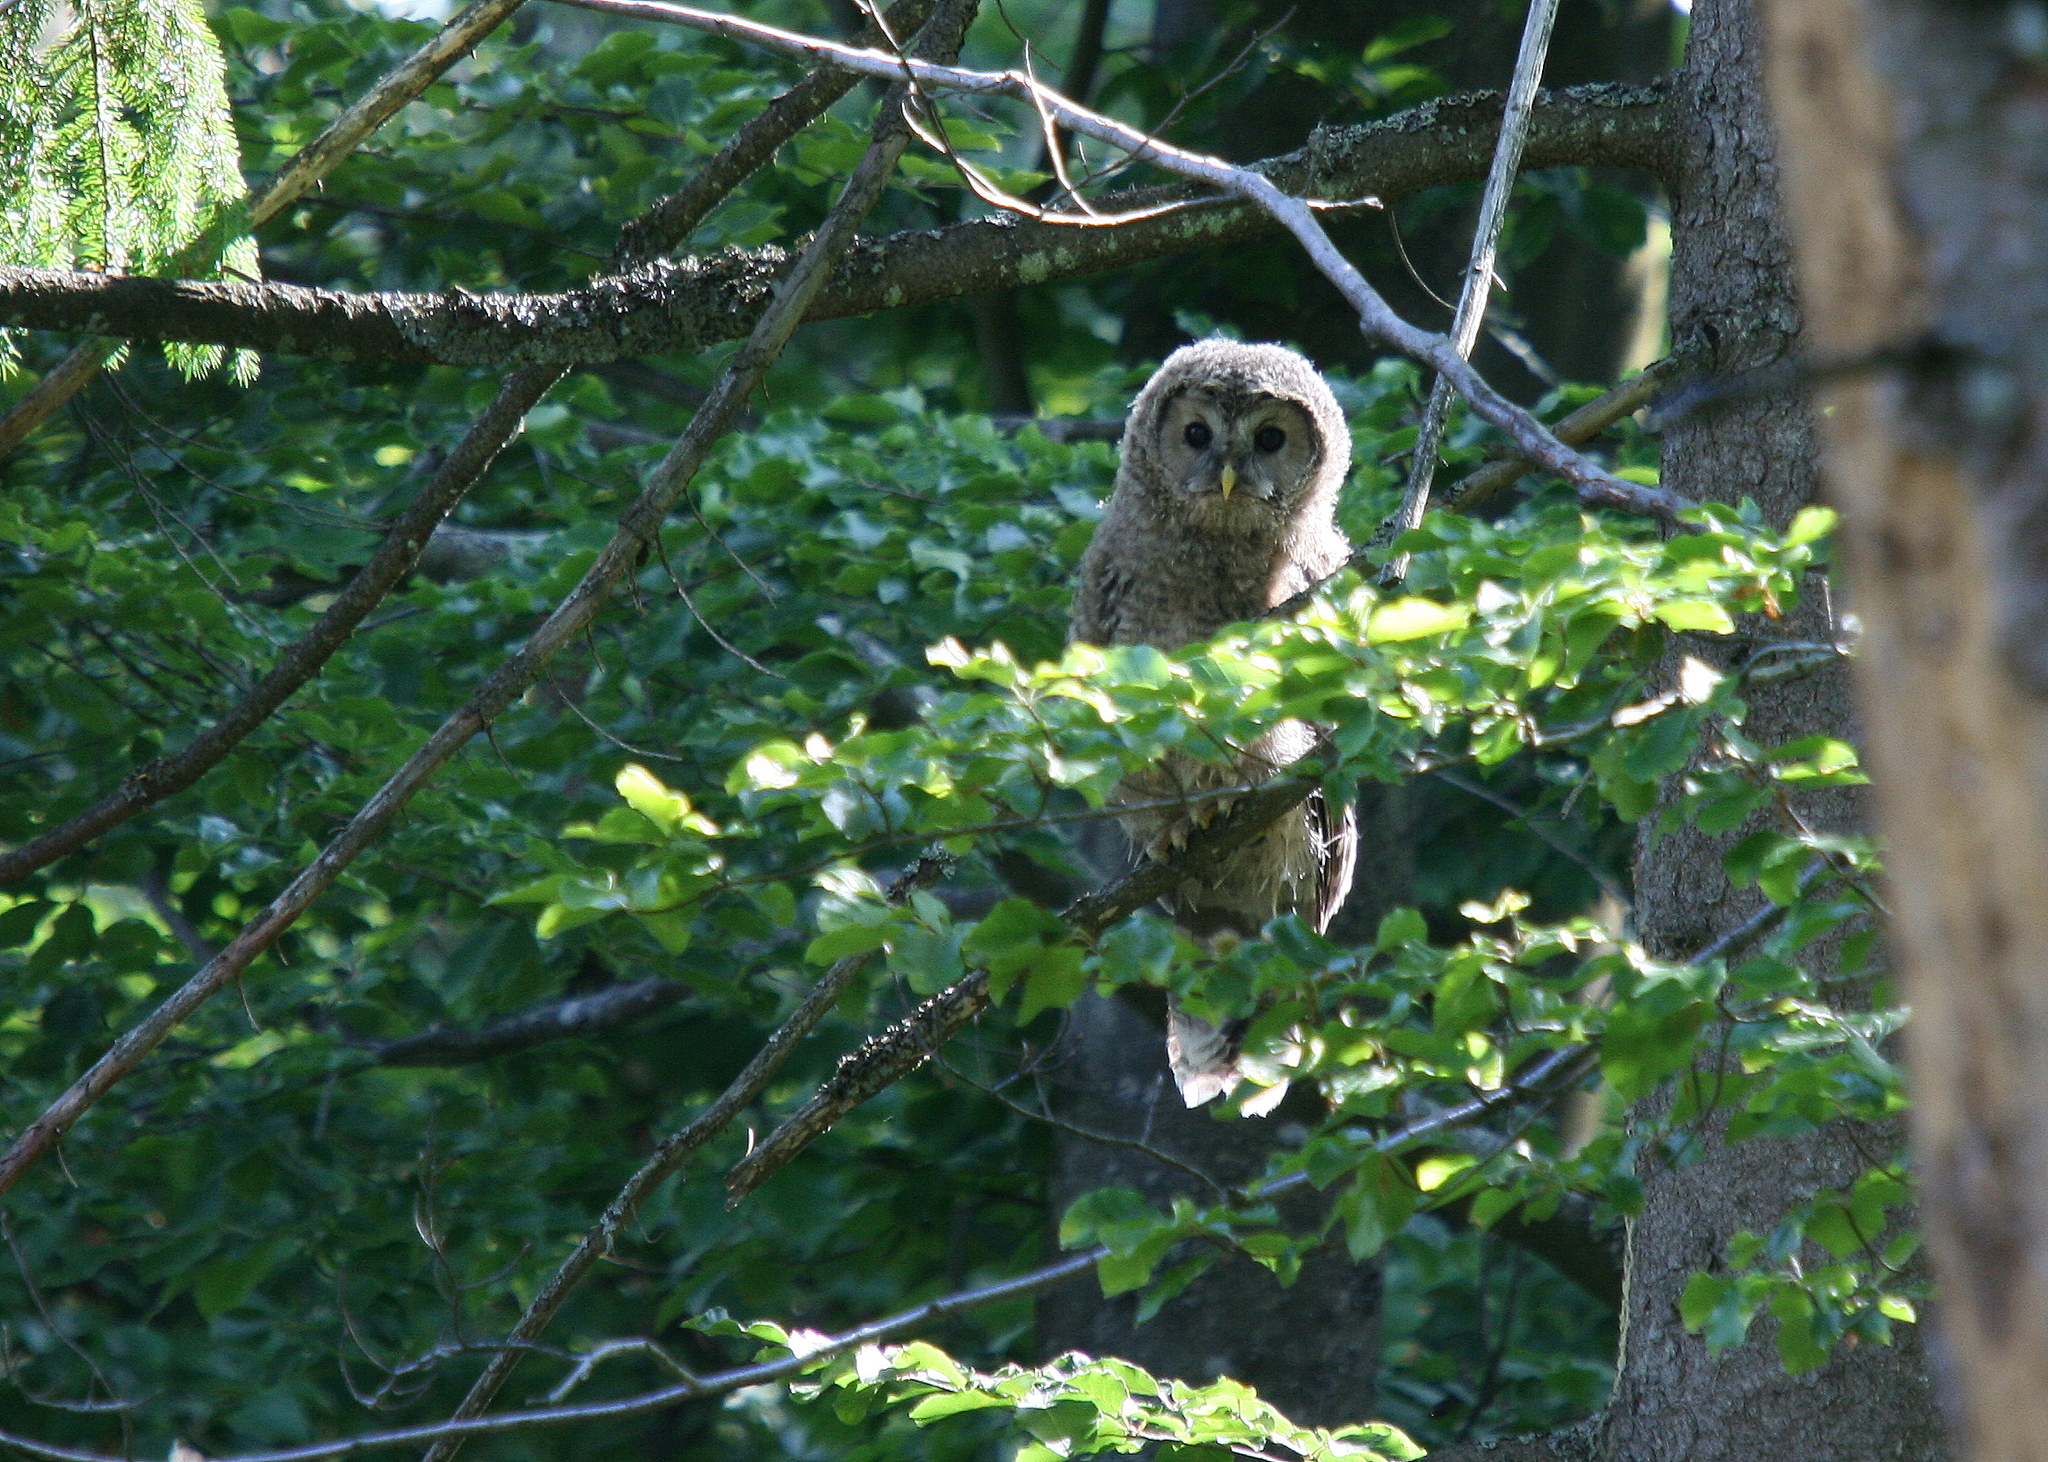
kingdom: Animalia
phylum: Chordata
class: Aves
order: Strigiformes
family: Strigidae
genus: Strix
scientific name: Strix uralensis
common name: Ural owl
